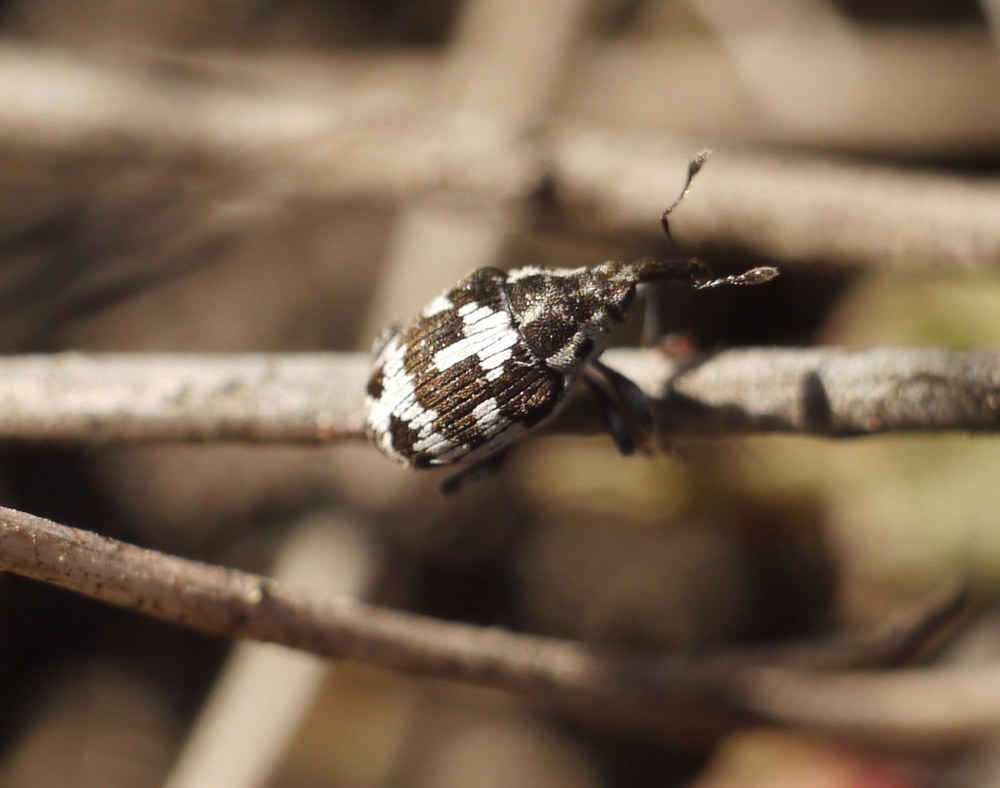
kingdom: Animalia
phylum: Arthropoda
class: Insecta
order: Coleoptera
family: Curculionidae
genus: Thamiocolus
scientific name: Thamiocolus sinapis
